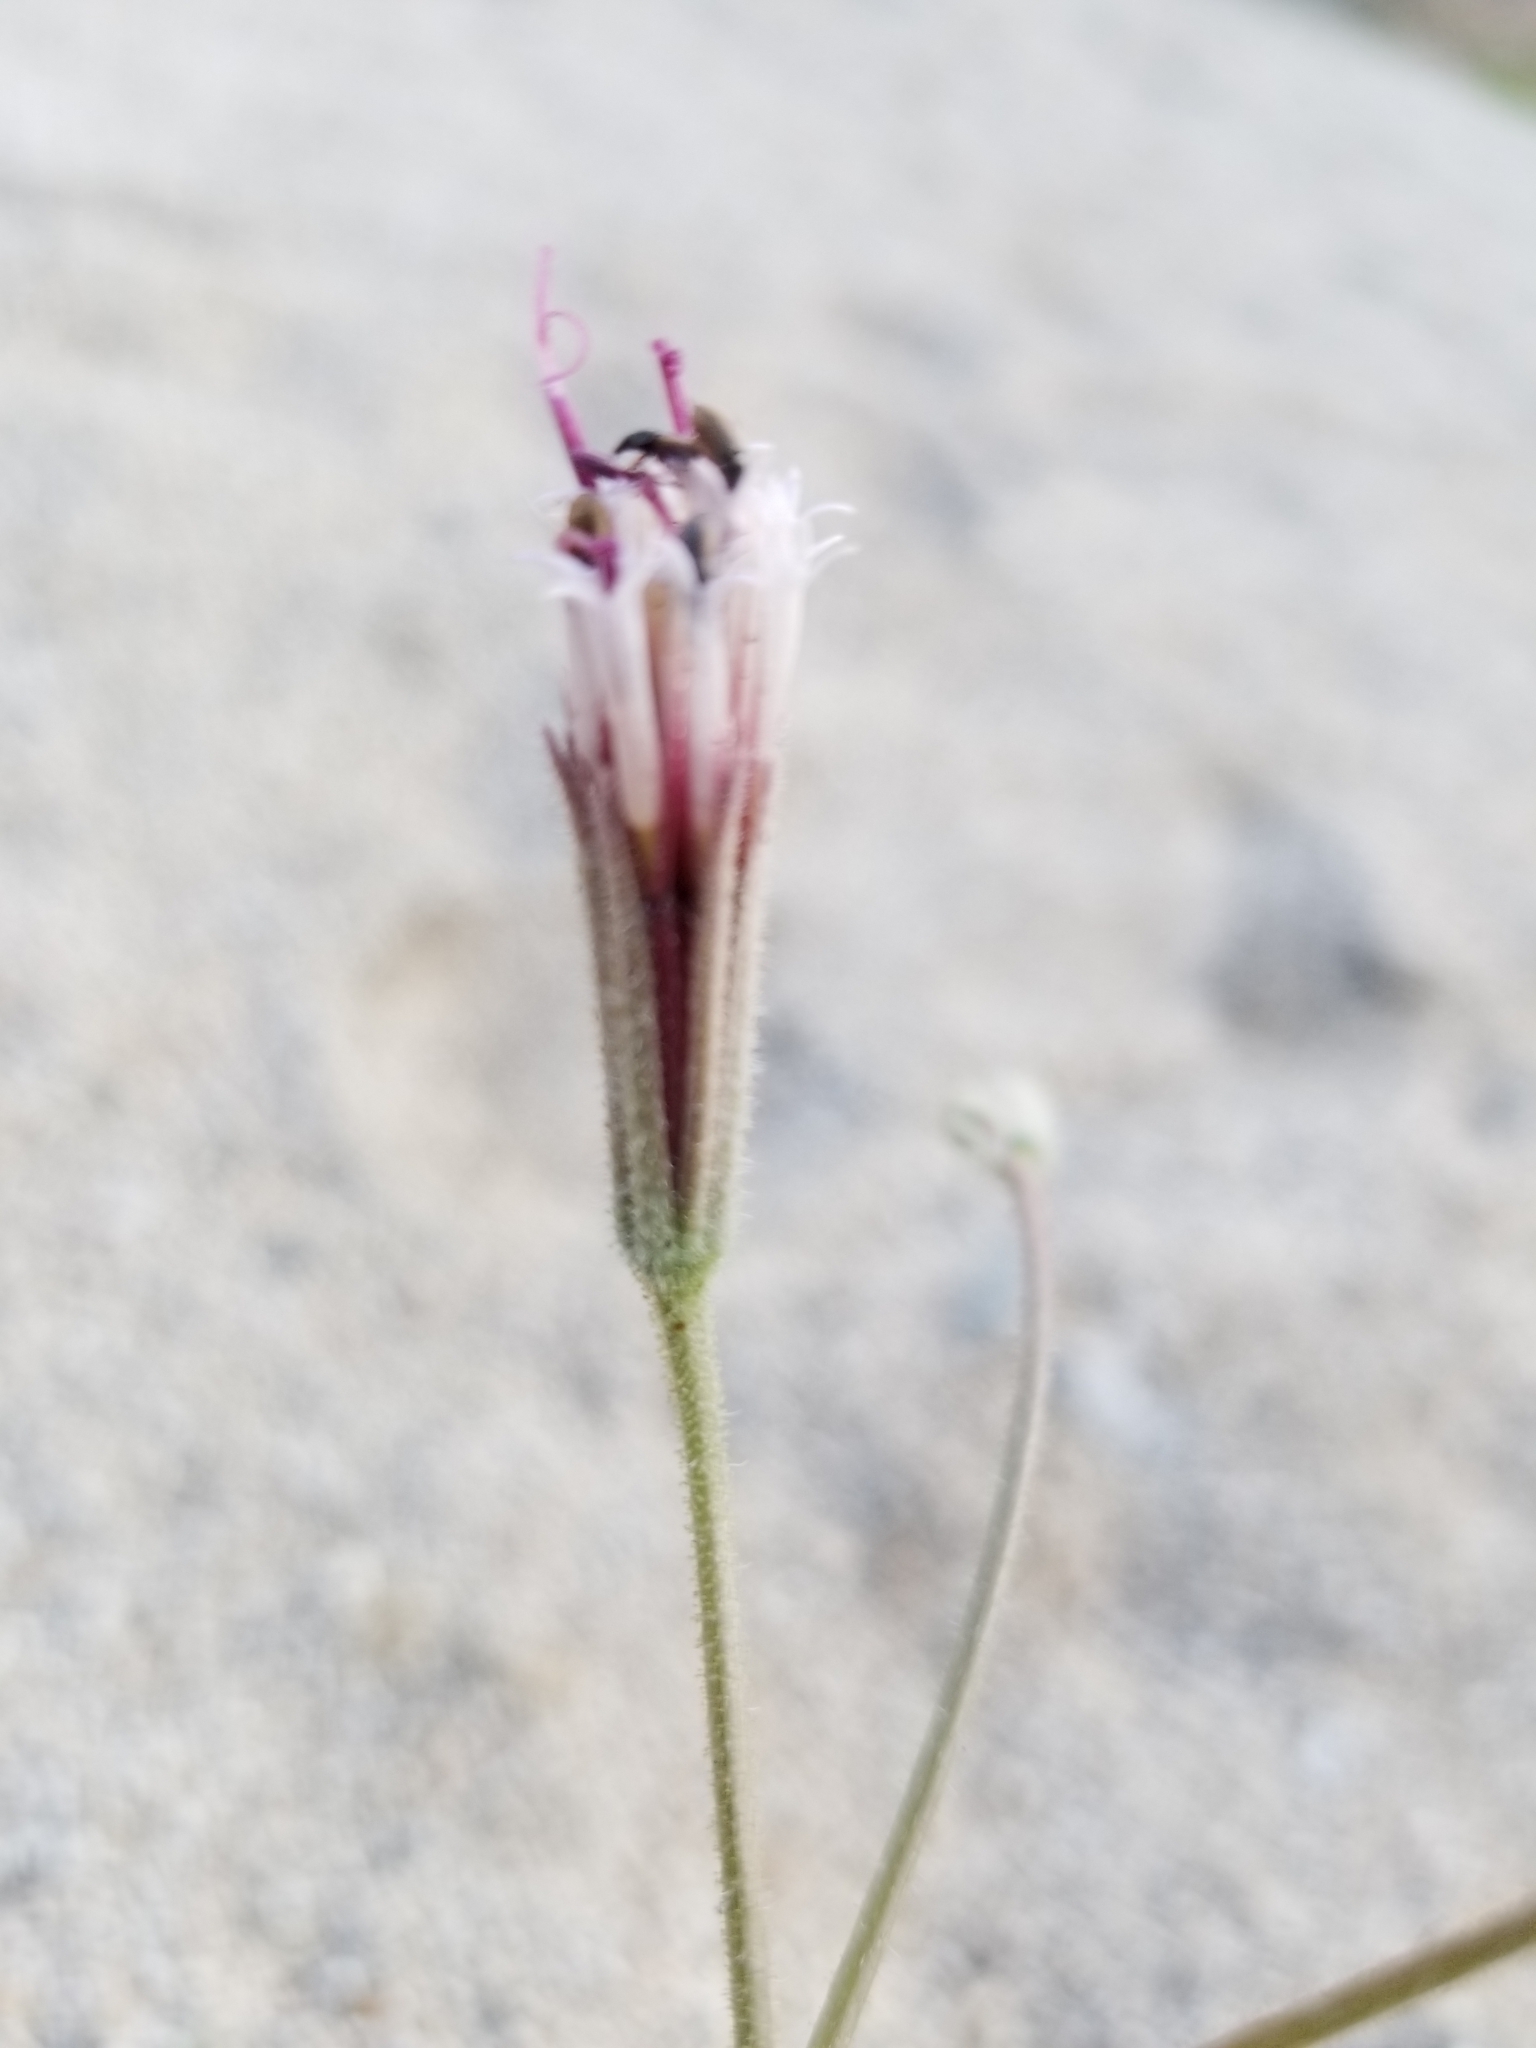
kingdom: Plantae
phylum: Tracheophyta
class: Magnoliopsida
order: Asterales
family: Asteraceae
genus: Palafoxia
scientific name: Palafoxia arida
